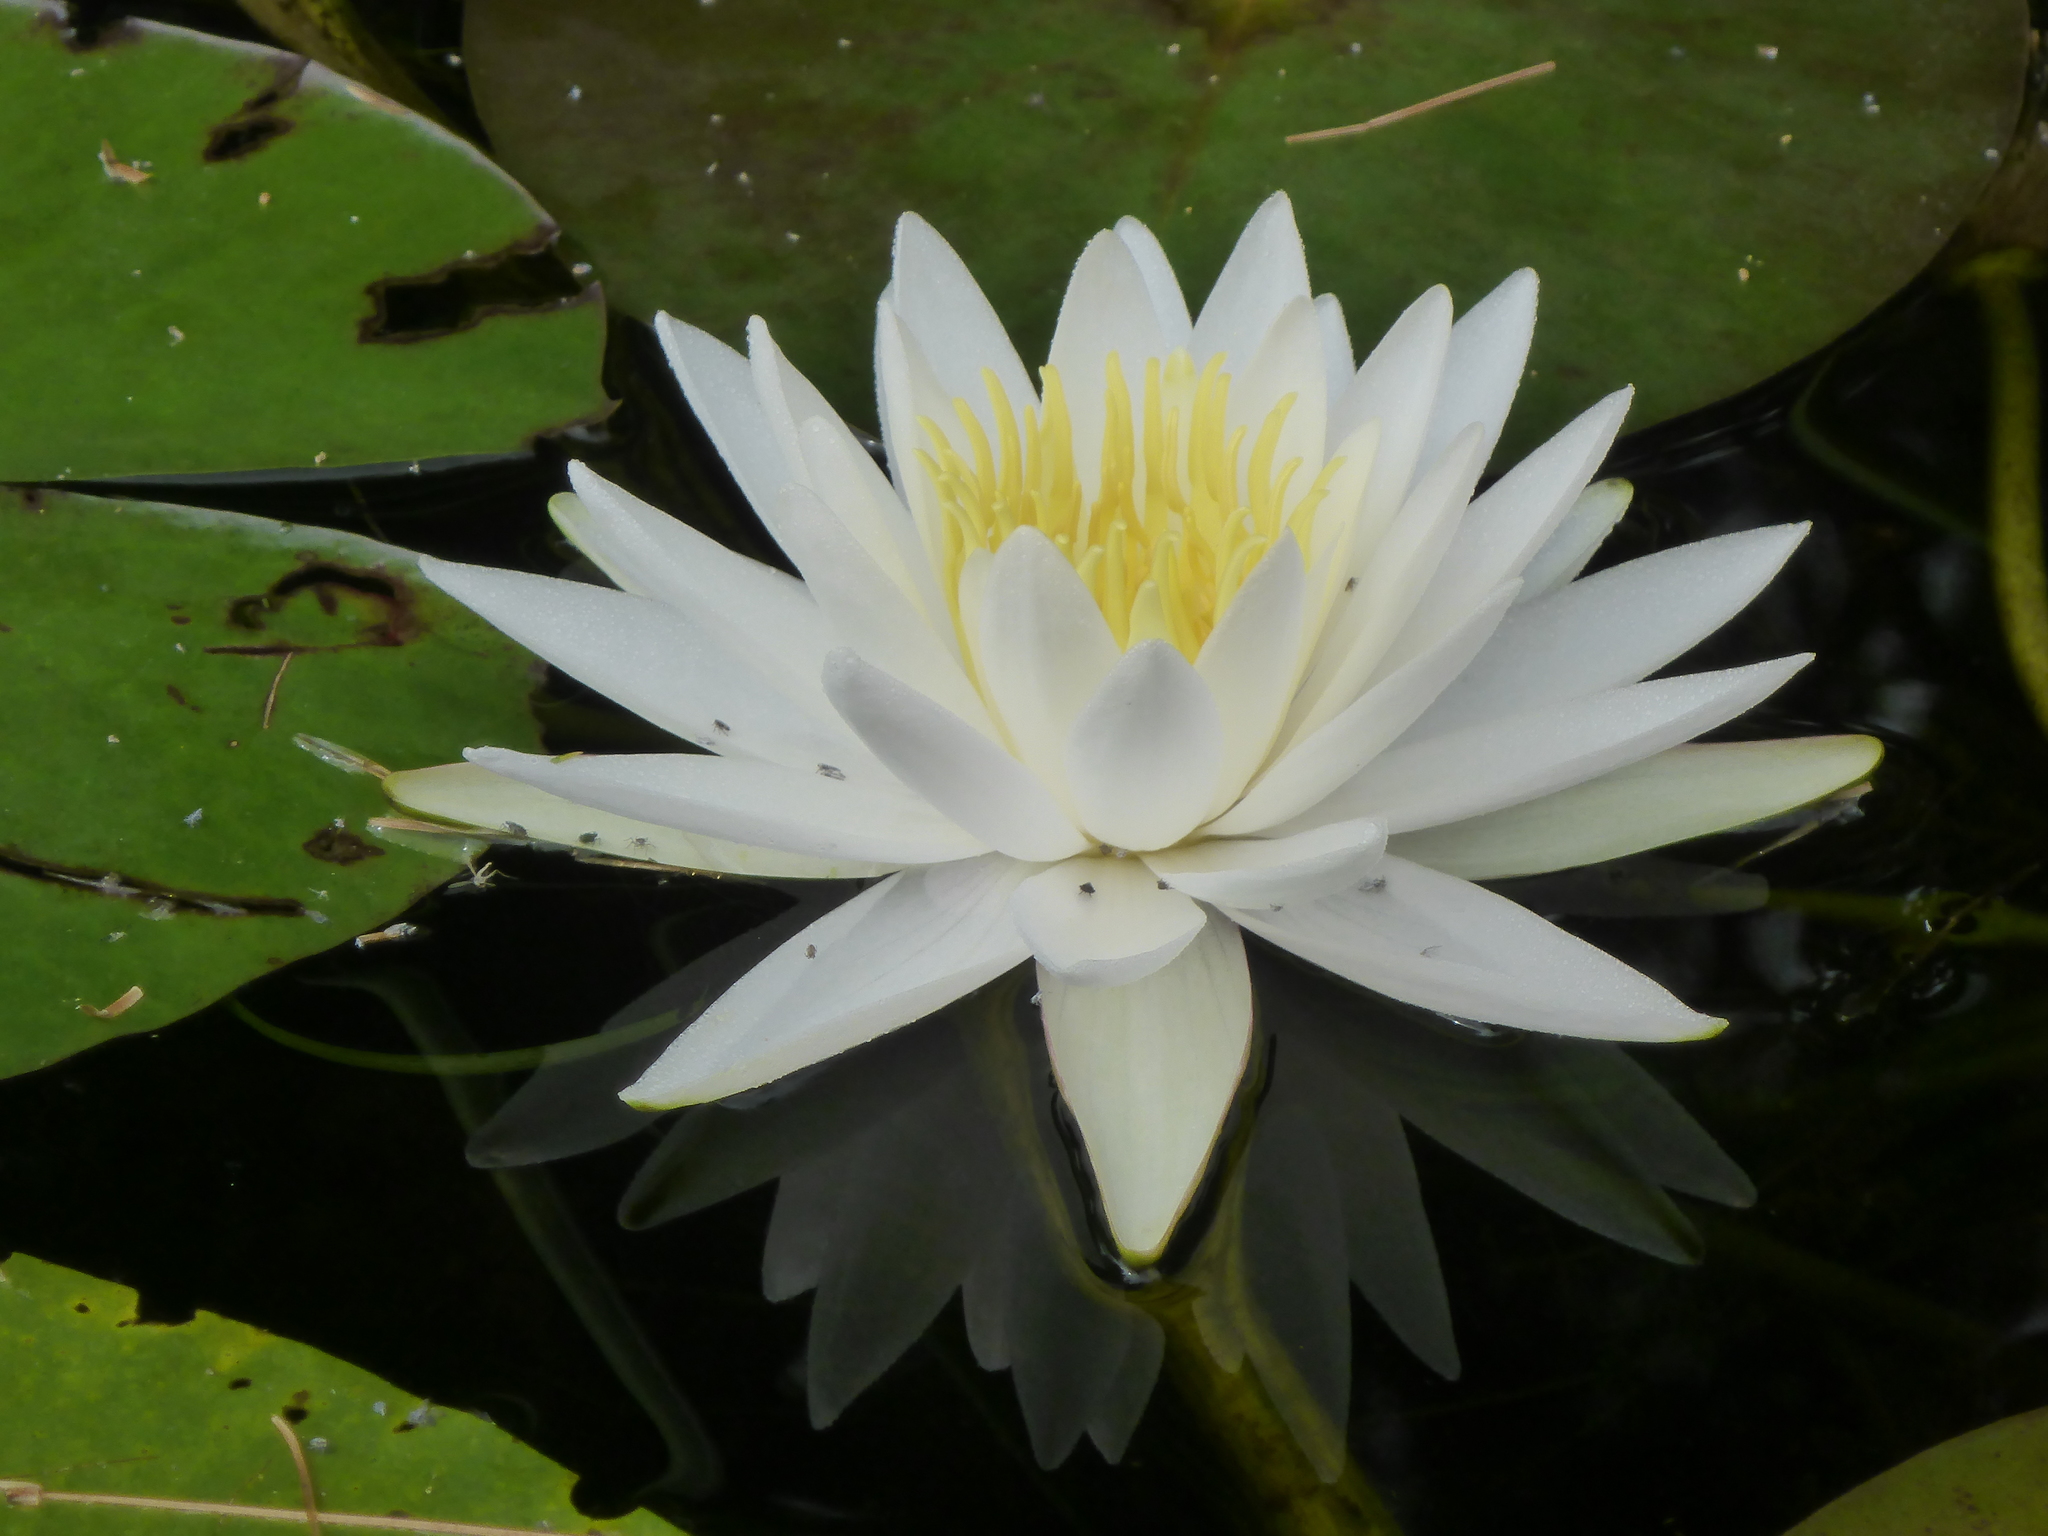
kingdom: Plantae
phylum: Tracheophyta
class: Magnoliopsida
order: Nymphaeales
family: Nymphaeaceae
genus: Nymphaea
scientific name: Nymphaea odorata
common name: Fragrant water-lily
